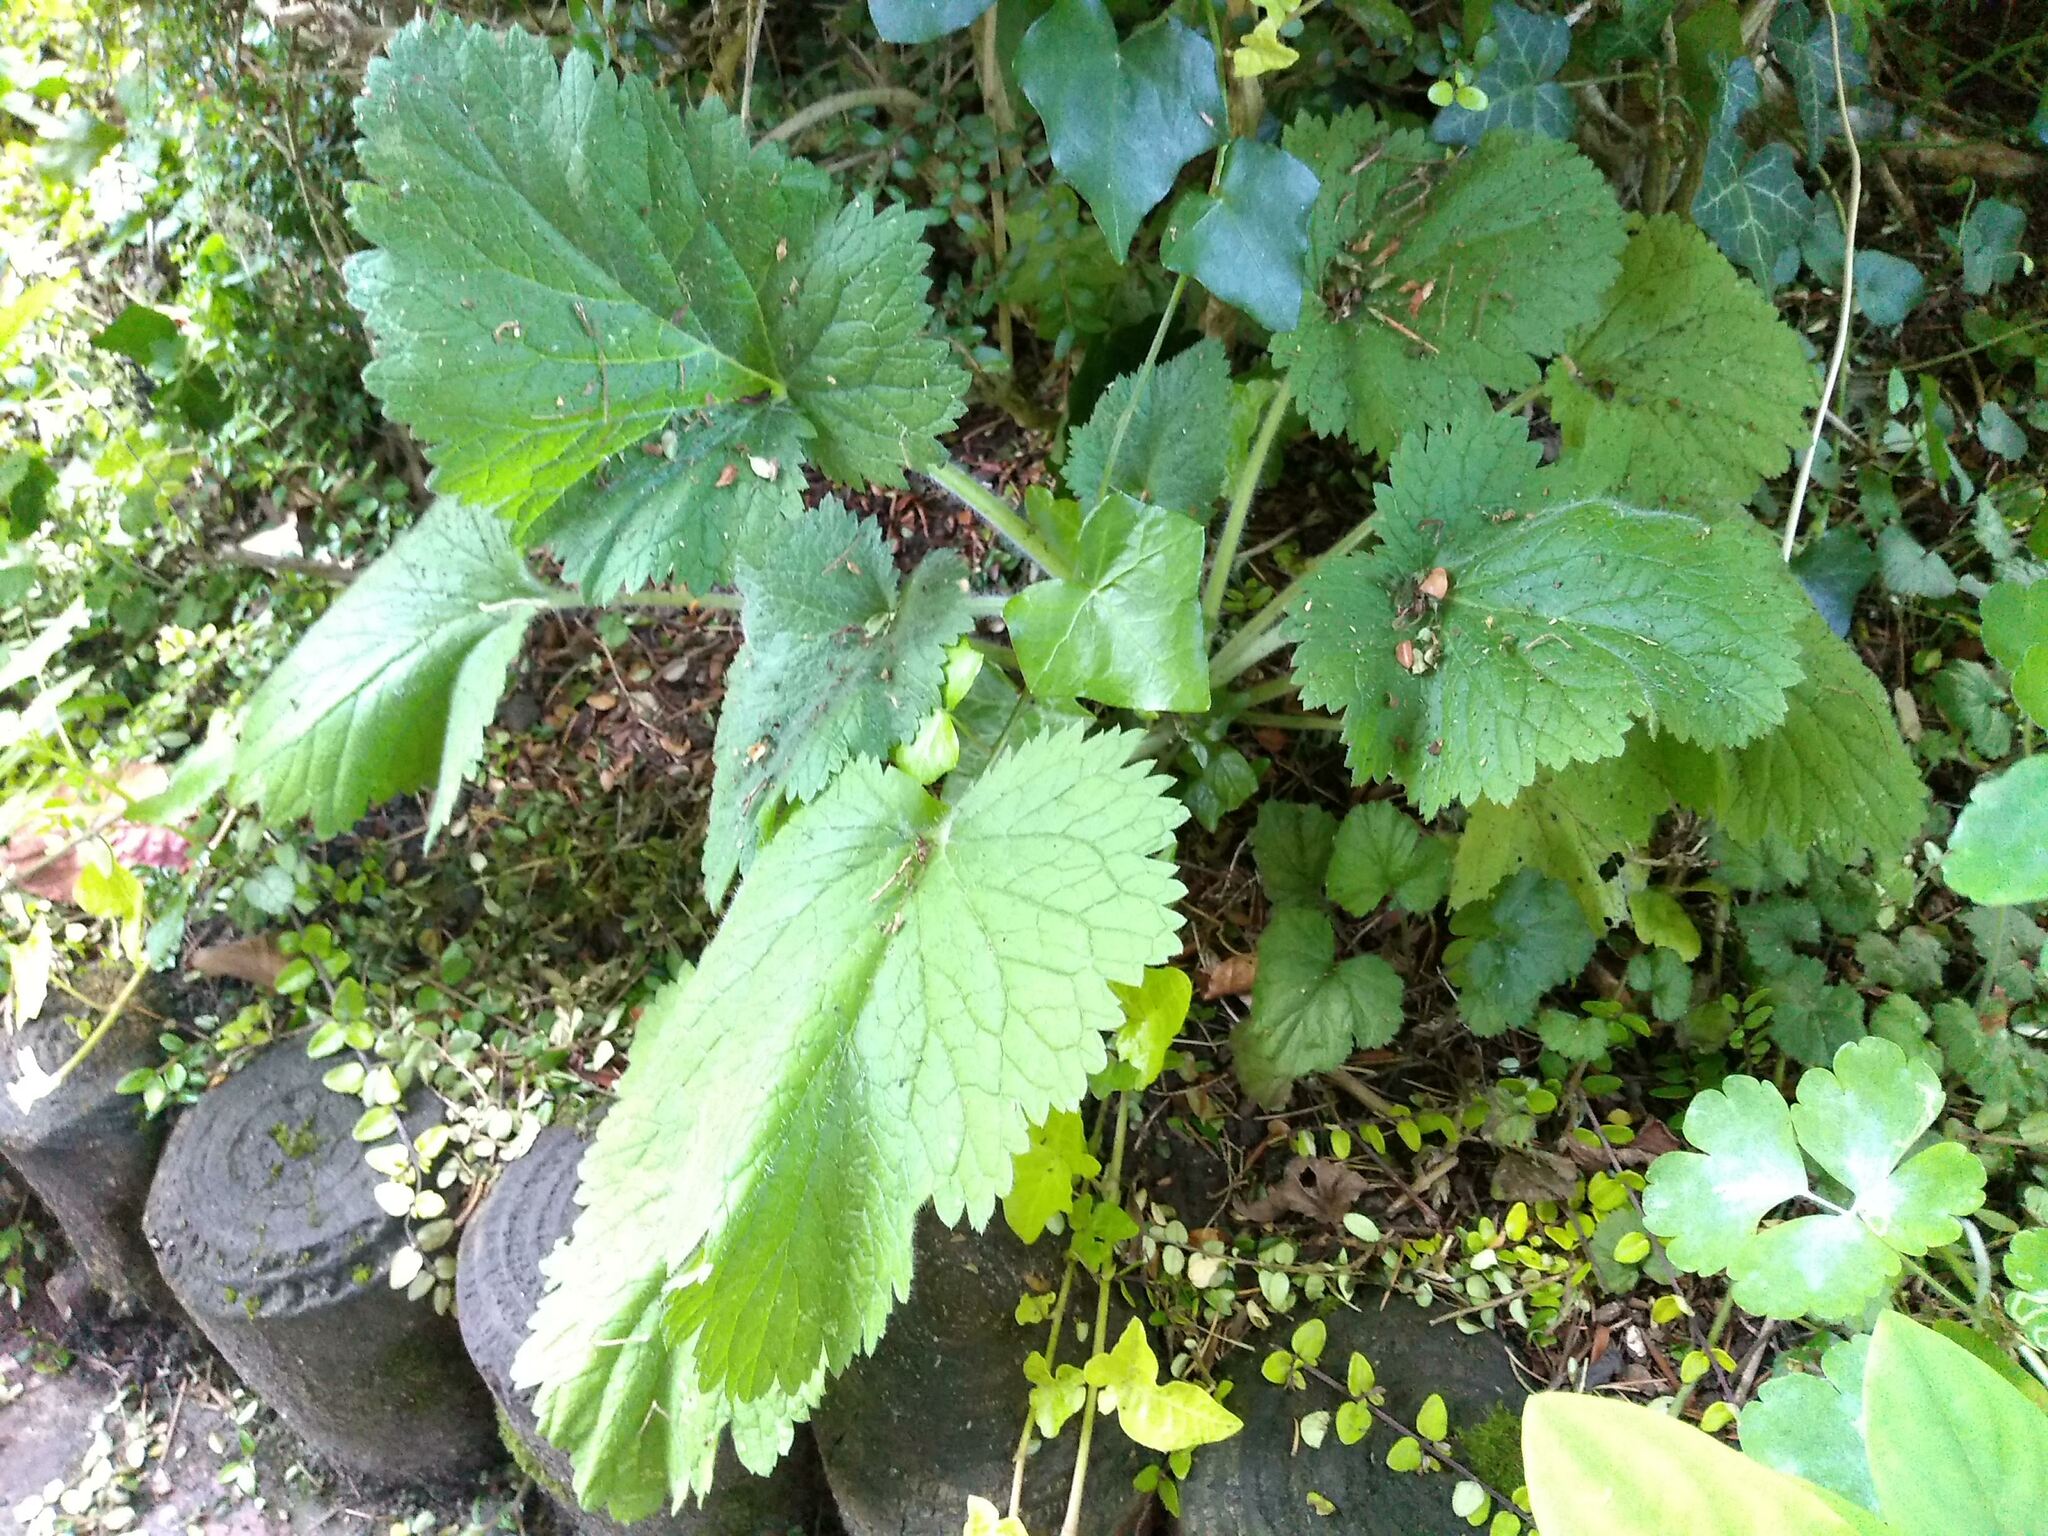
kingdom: Plantae
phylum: Tracheophyta
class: Magnoliopsida
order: Lamiales
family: Scrophulariaceae
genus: Scrophularia
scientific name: Scrophularia vernalis
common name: Yellow figwort
